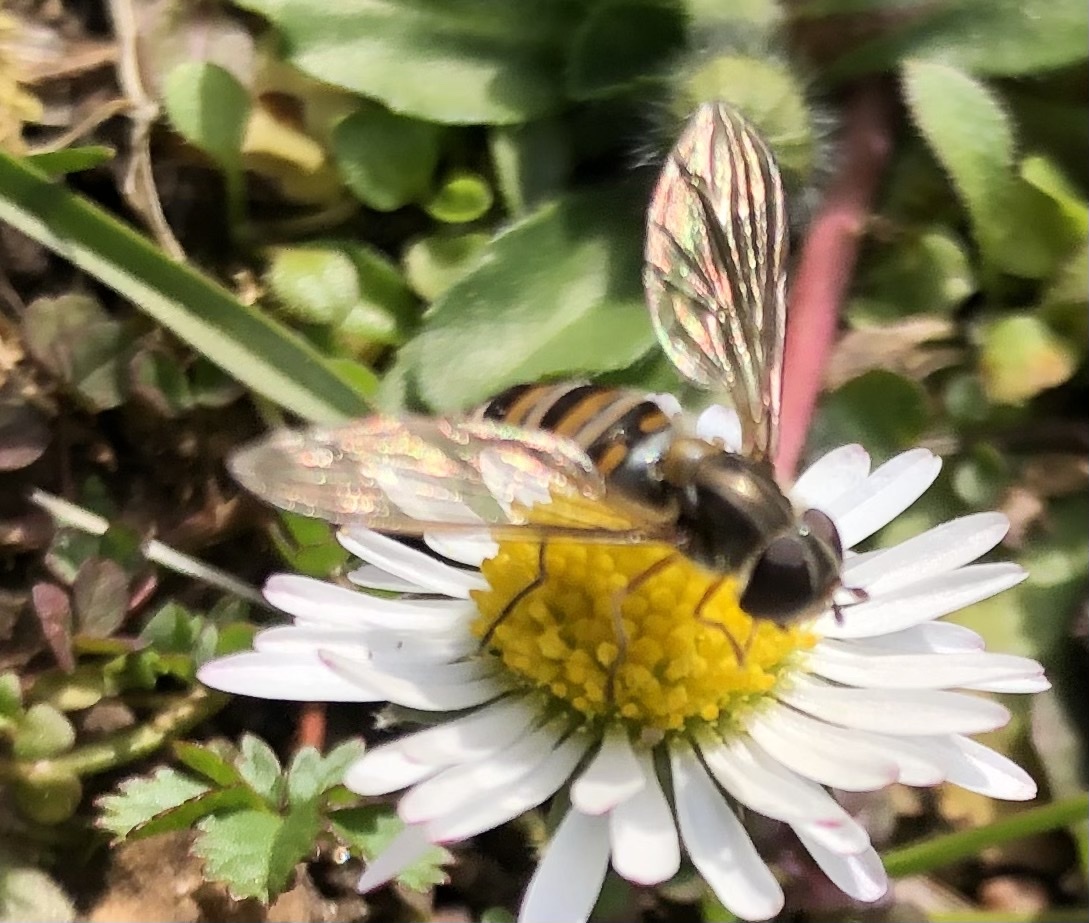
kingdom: Animalia
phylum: Arthropoda
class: Insecta
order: Diptera
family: Syrphidae
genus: Episyrphus
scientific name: Episyrphus balteatus
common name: Marmalade hoverfly
